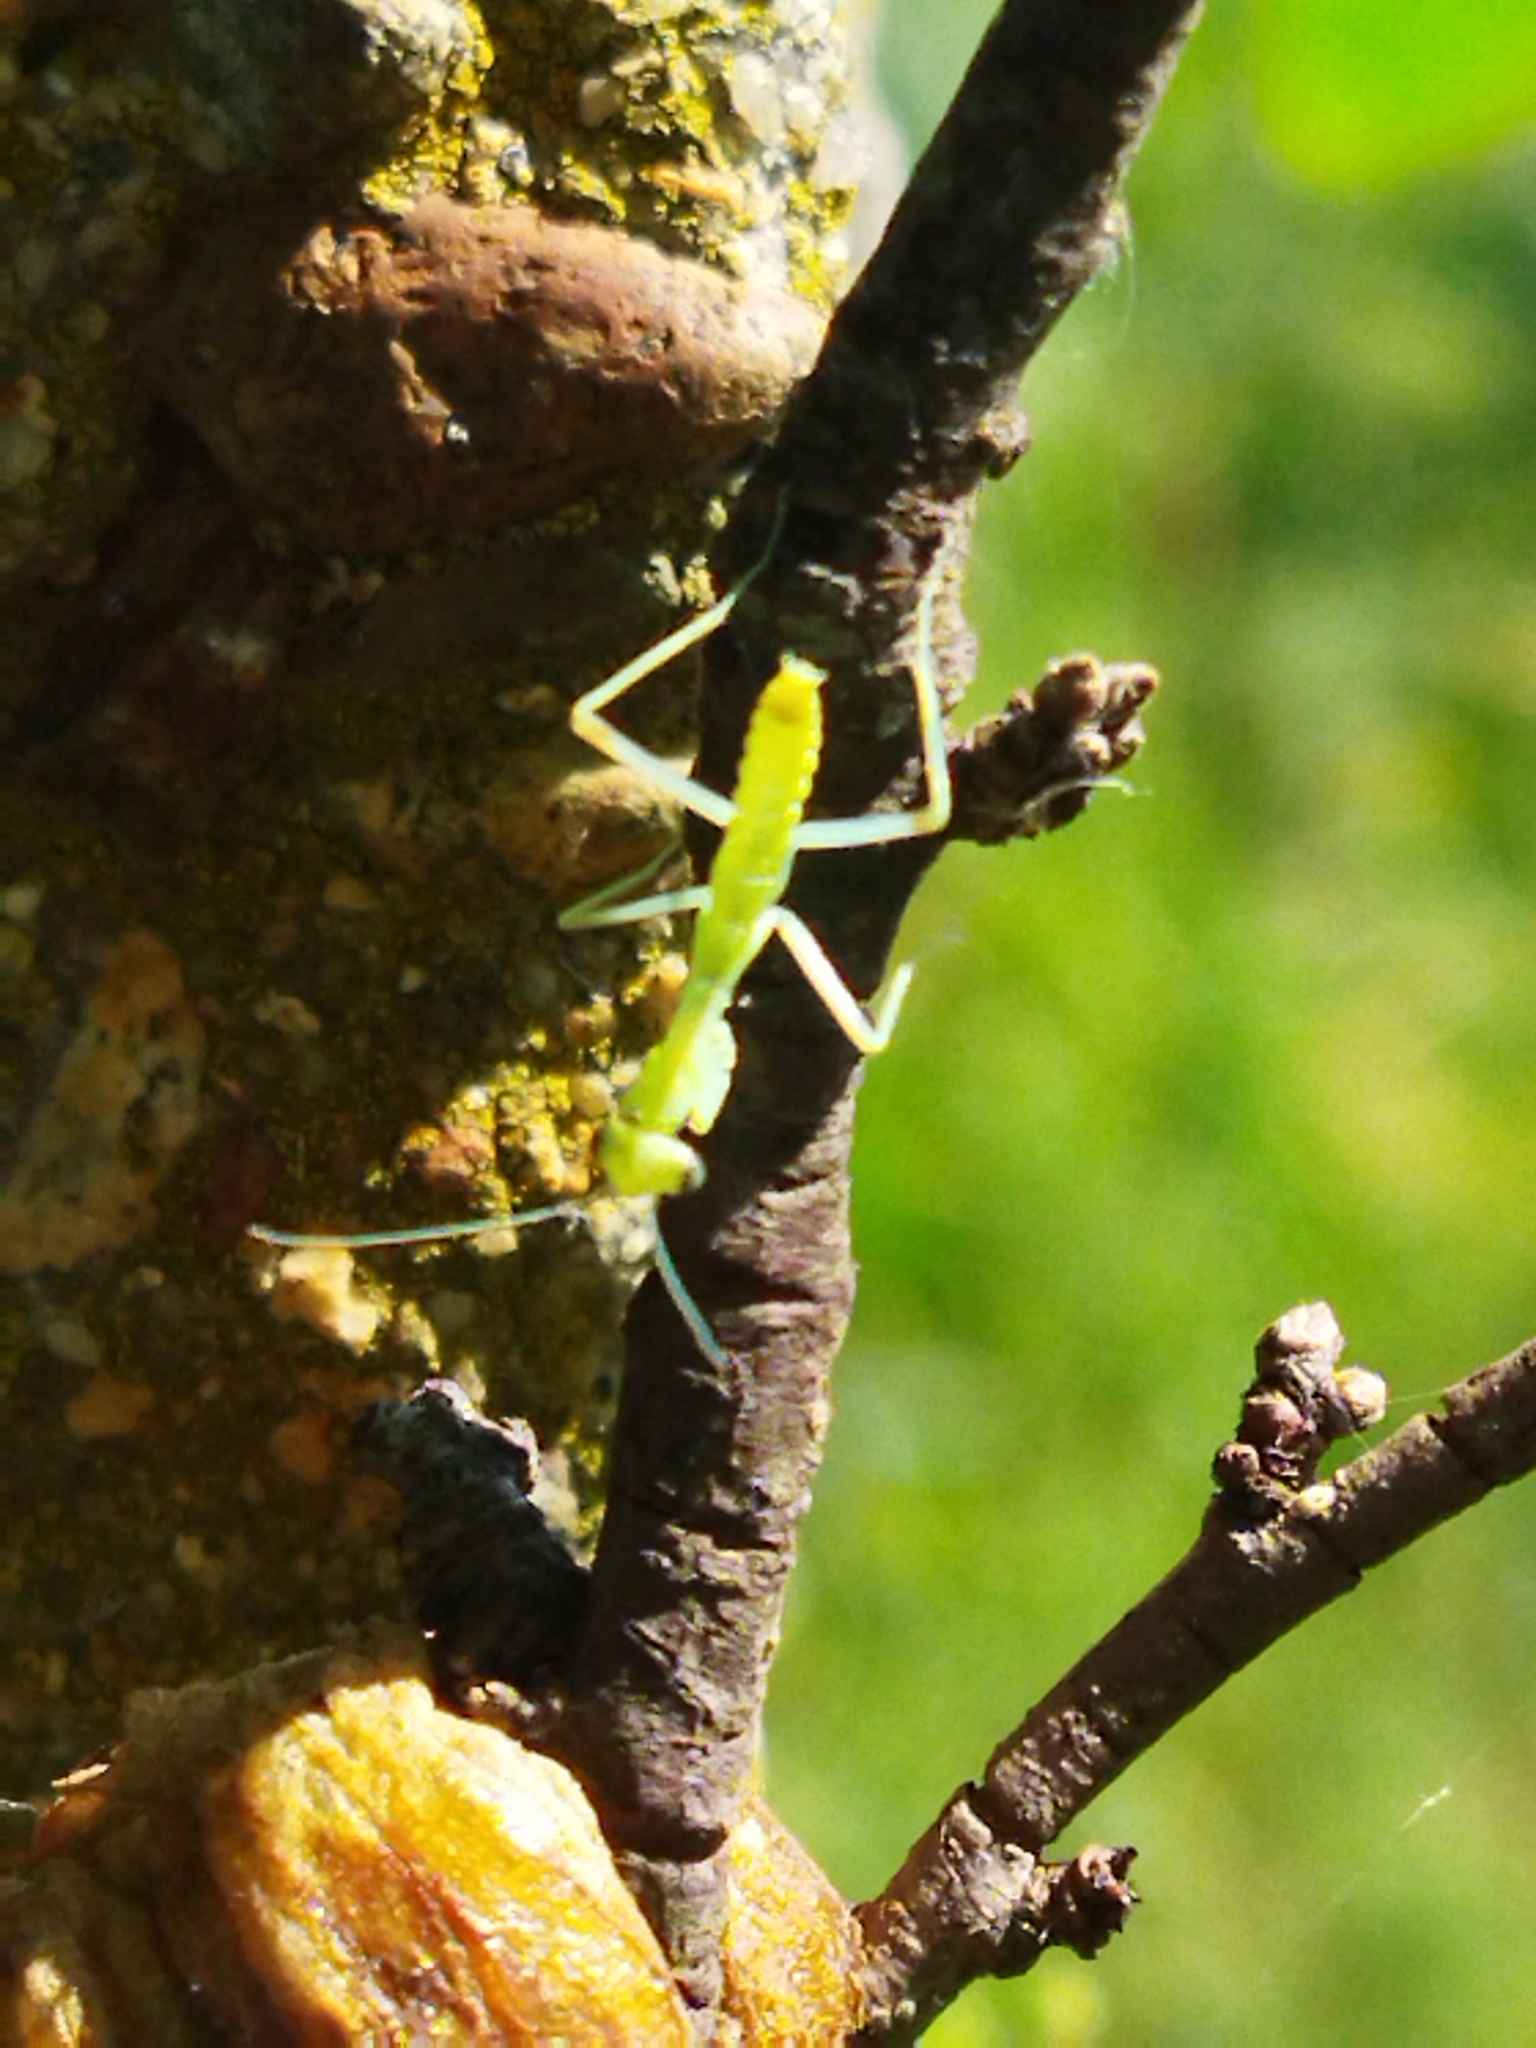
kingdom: Animalia
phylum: Arthropoda
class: Insecta
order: Mantodea
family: Mantidae
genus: Hierodula
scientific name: Hierodula transcaucasica
